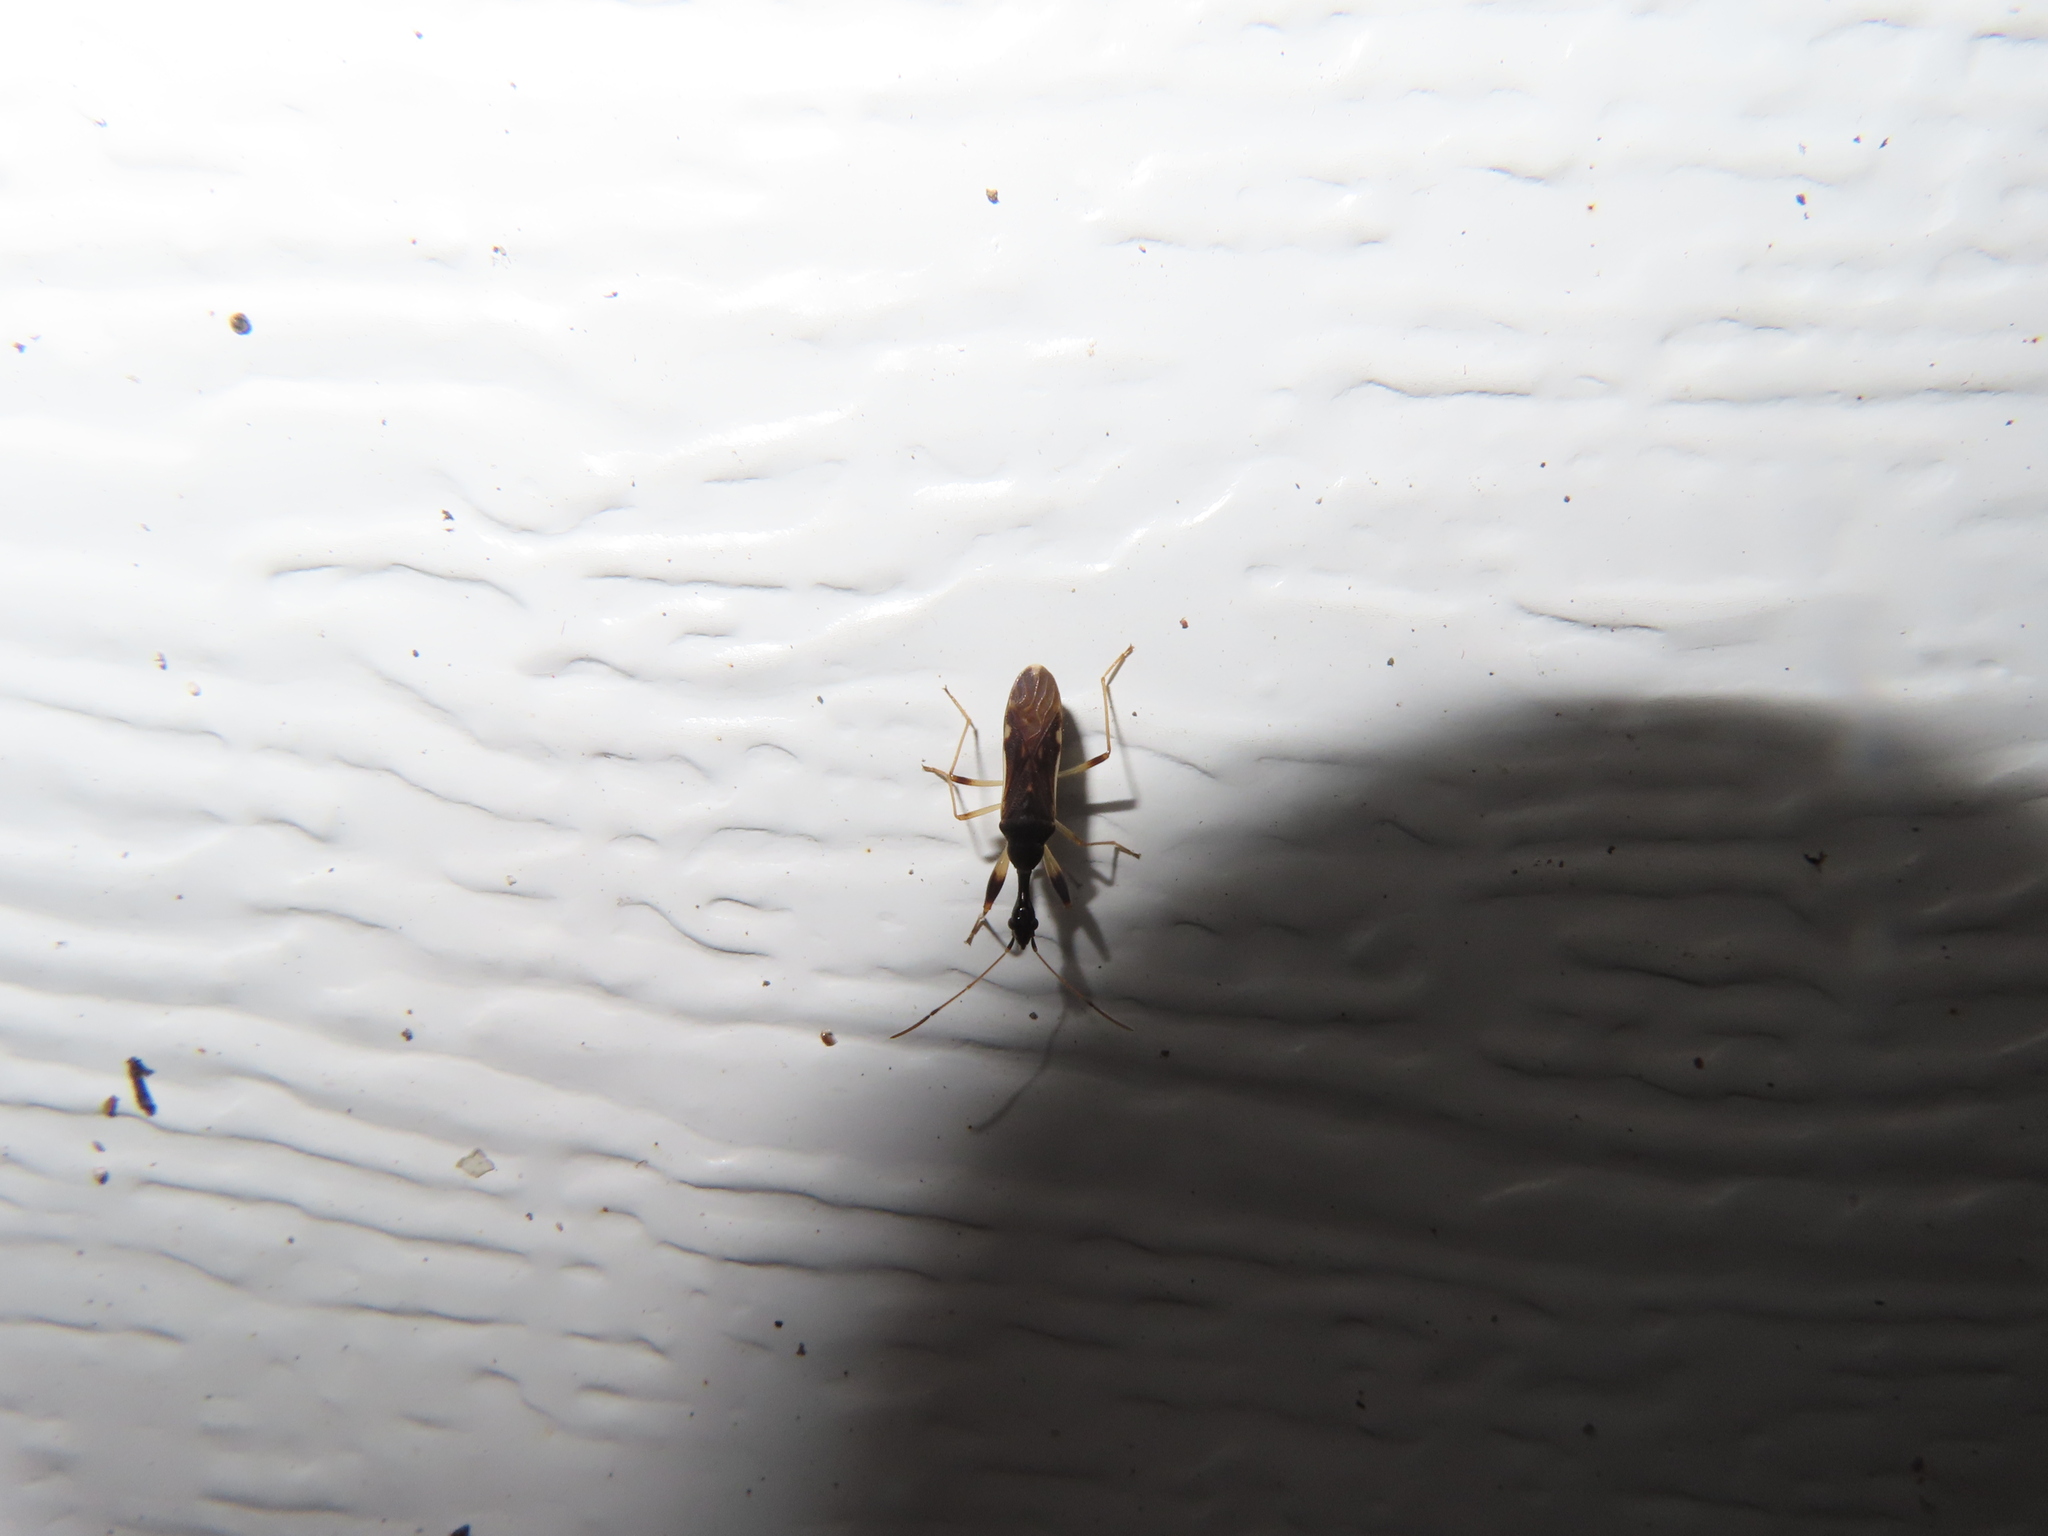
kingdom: Animalia
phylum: Arthropoda
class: Insecta
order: Hemiptera
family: Rhyparochromidae
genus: Myodocha
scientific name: Myodocha serripes
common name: Long-necked seed bug
